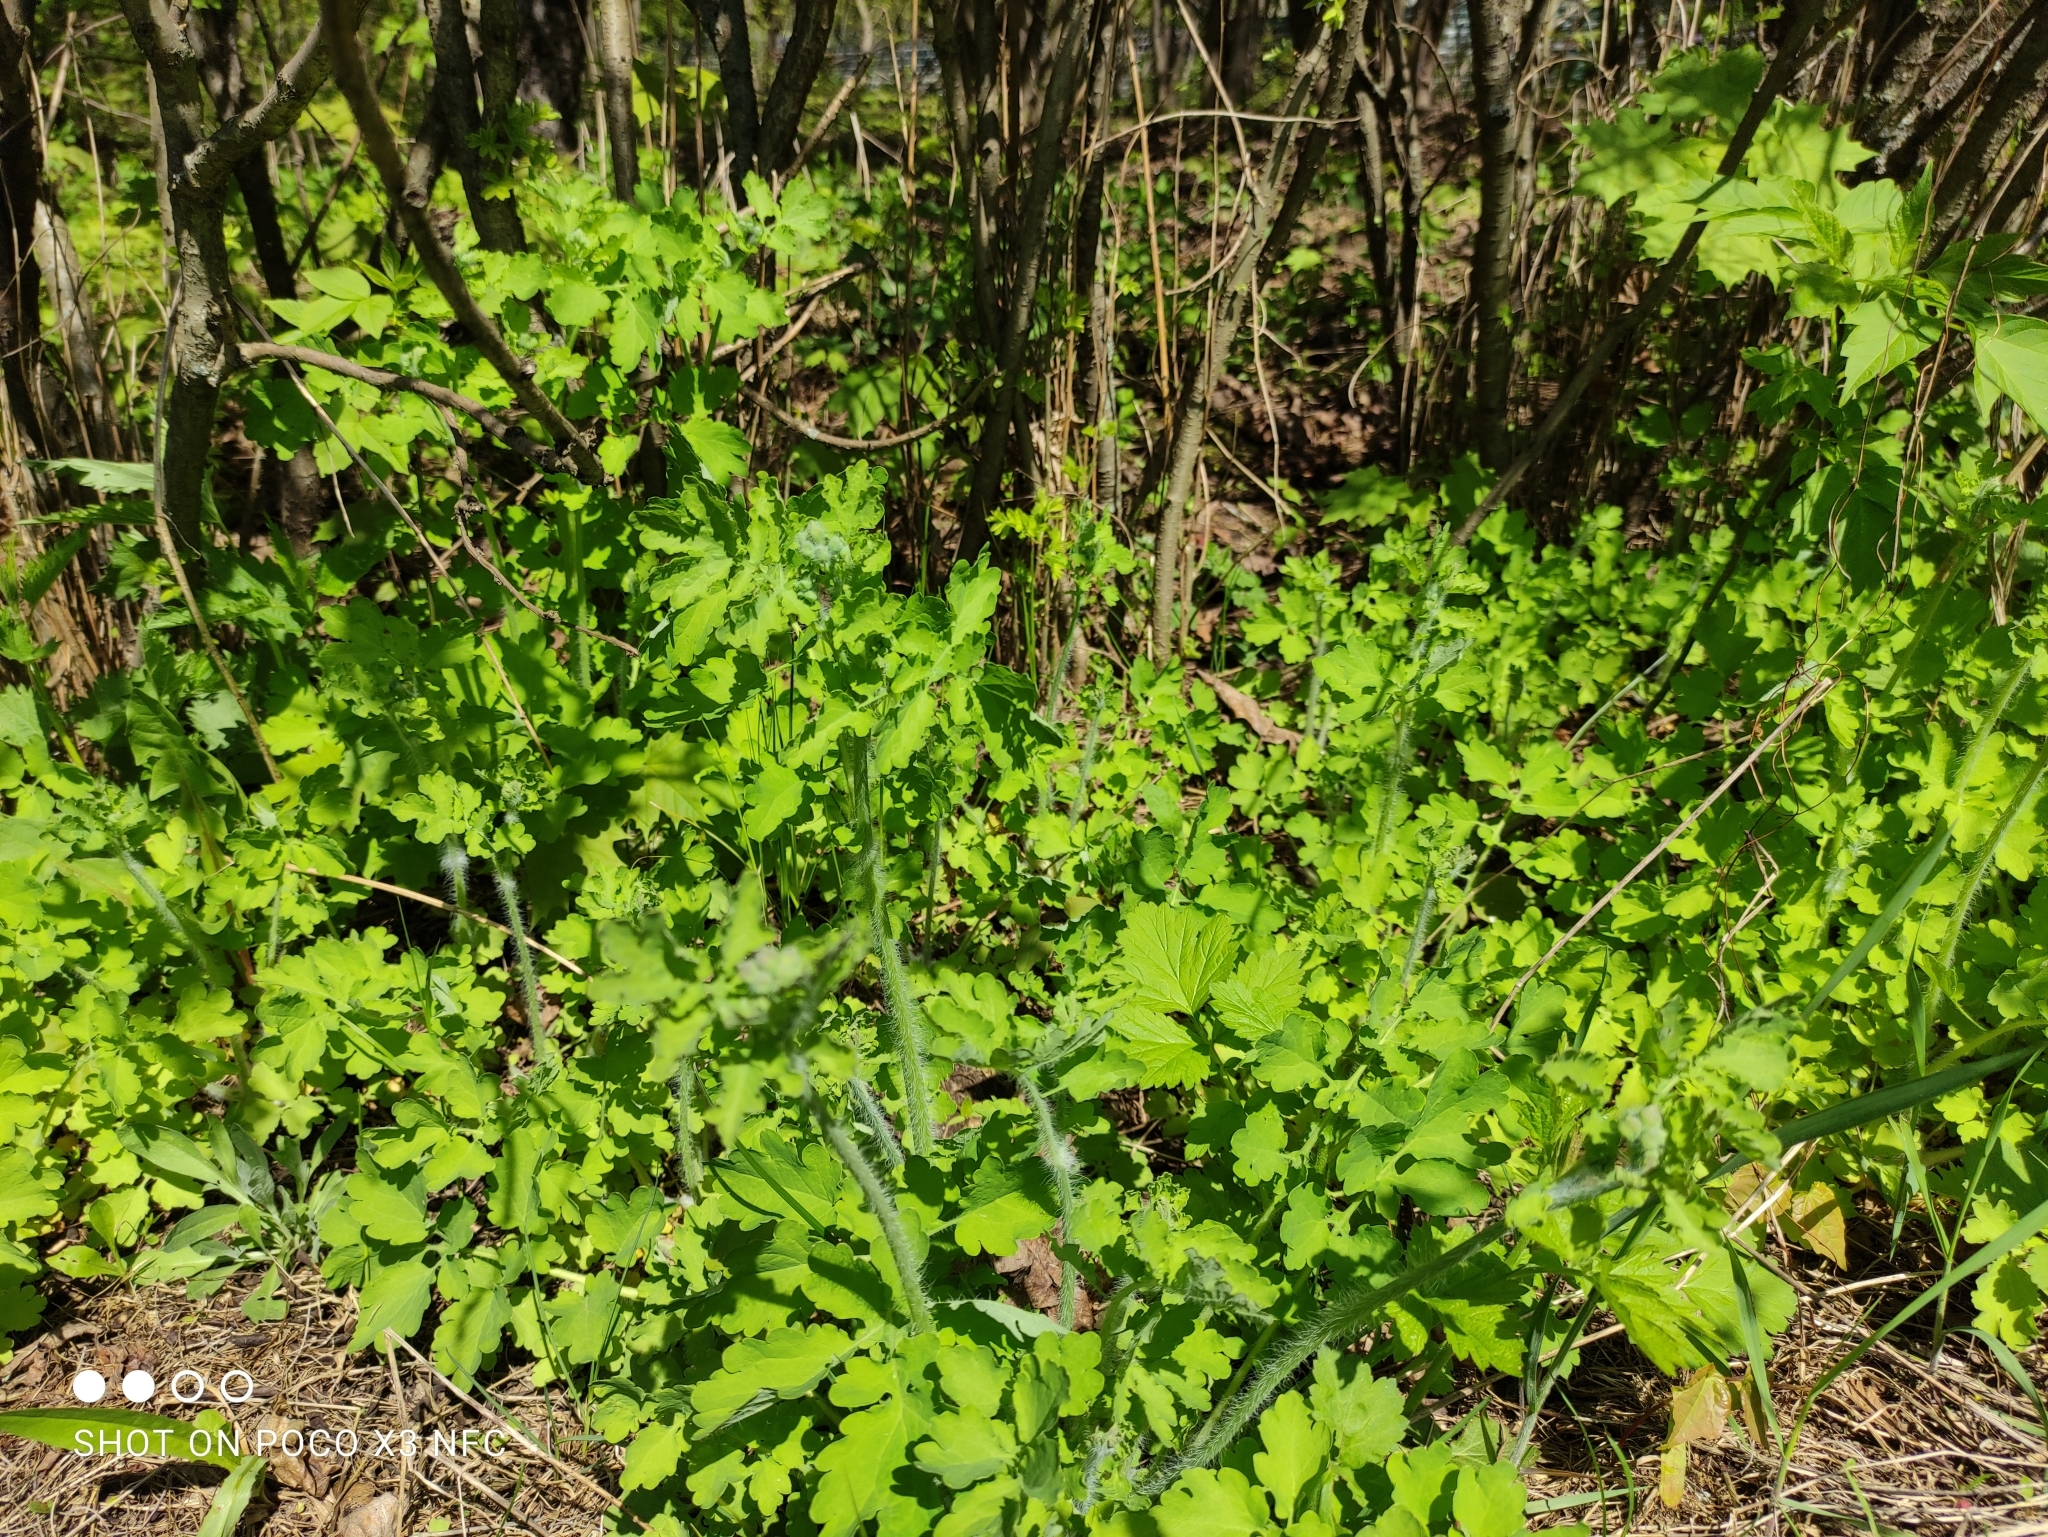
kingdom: Plantae
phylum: Tracheophyta
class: Magnoliopsida
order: Ranunculales
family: Papaveraceae
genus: Chelidonium
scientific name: Chelidonium majus
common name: Greater celandine
